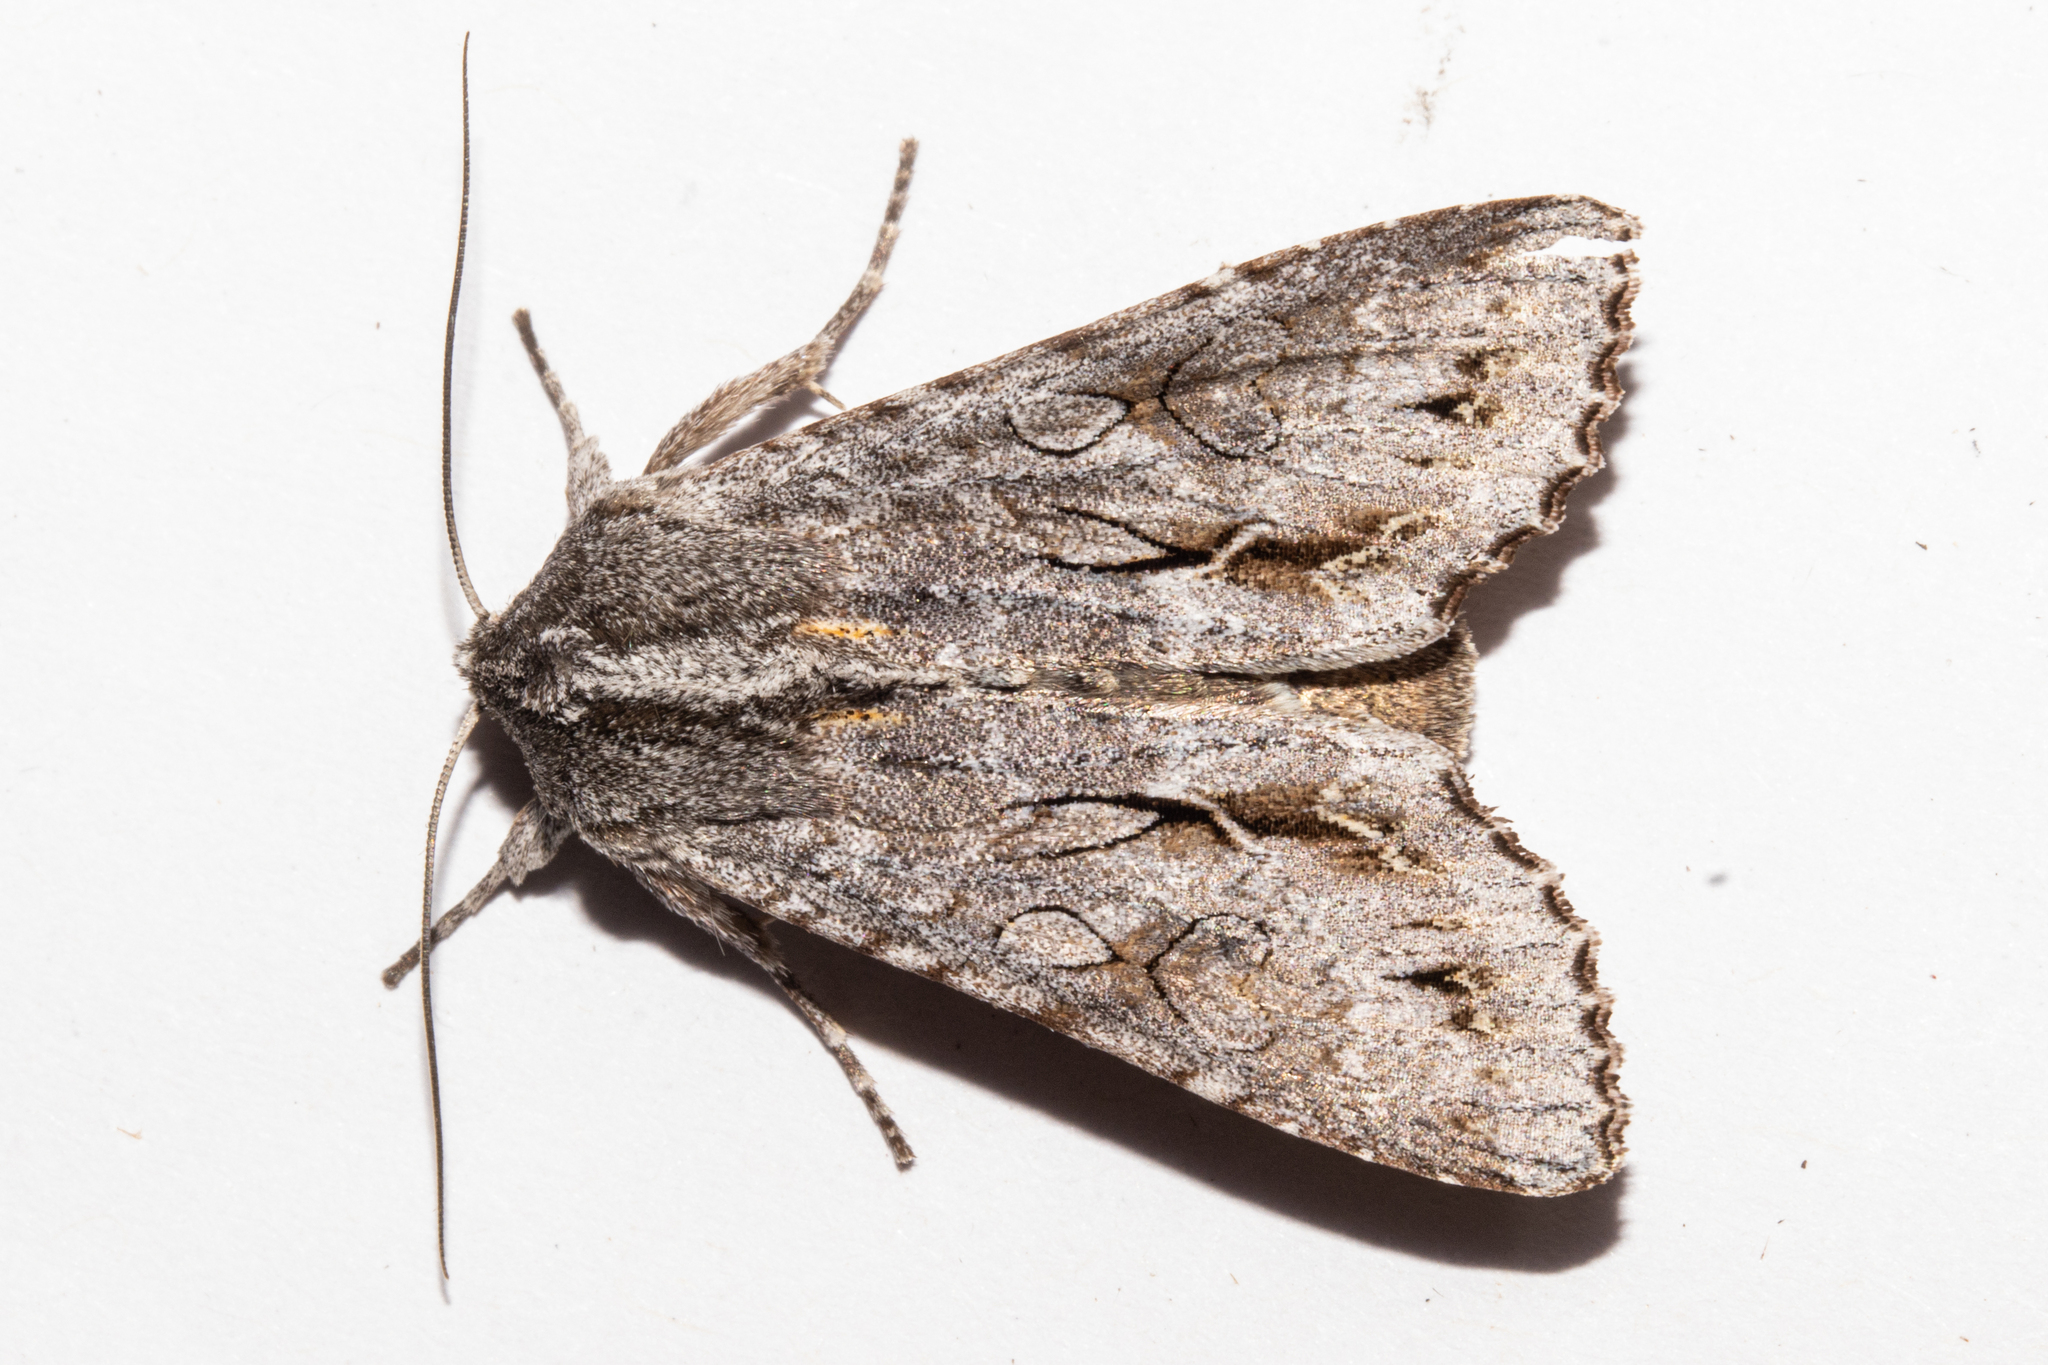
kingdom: Animalia
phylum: Arthropoda
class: Insecta
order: Lepidoptera
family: Noctuidae
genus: Ichneutica
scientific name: Ichneutica
